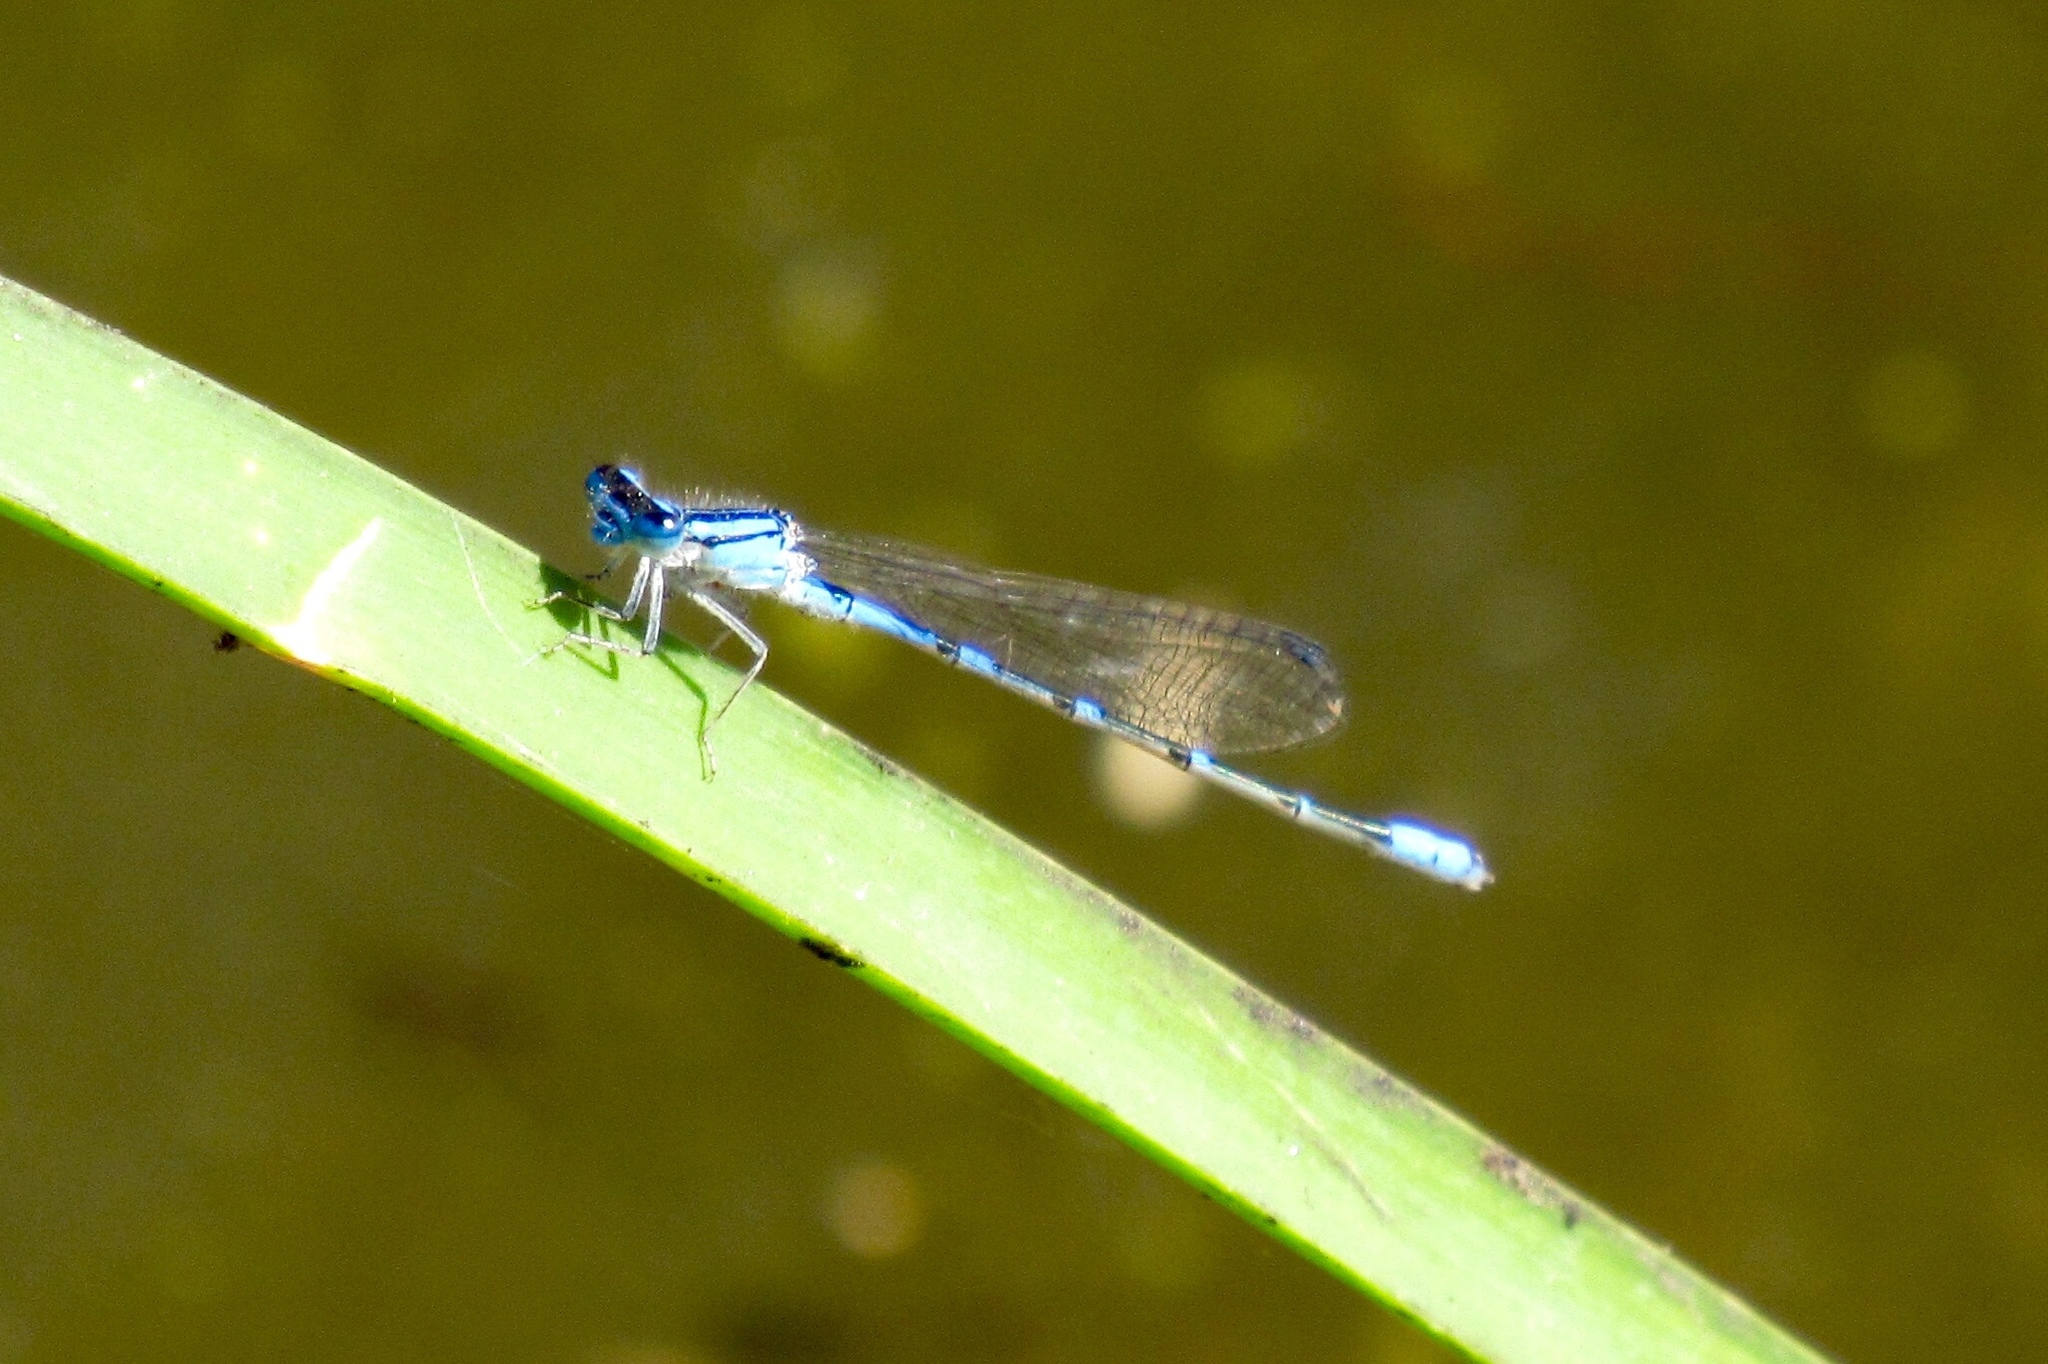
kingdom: Animalia
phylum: Arthropoda
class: Insecta
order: Odonata
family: Coenagrionidae
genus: Enallagma
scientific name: Enallagma civile
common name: Damselfly
